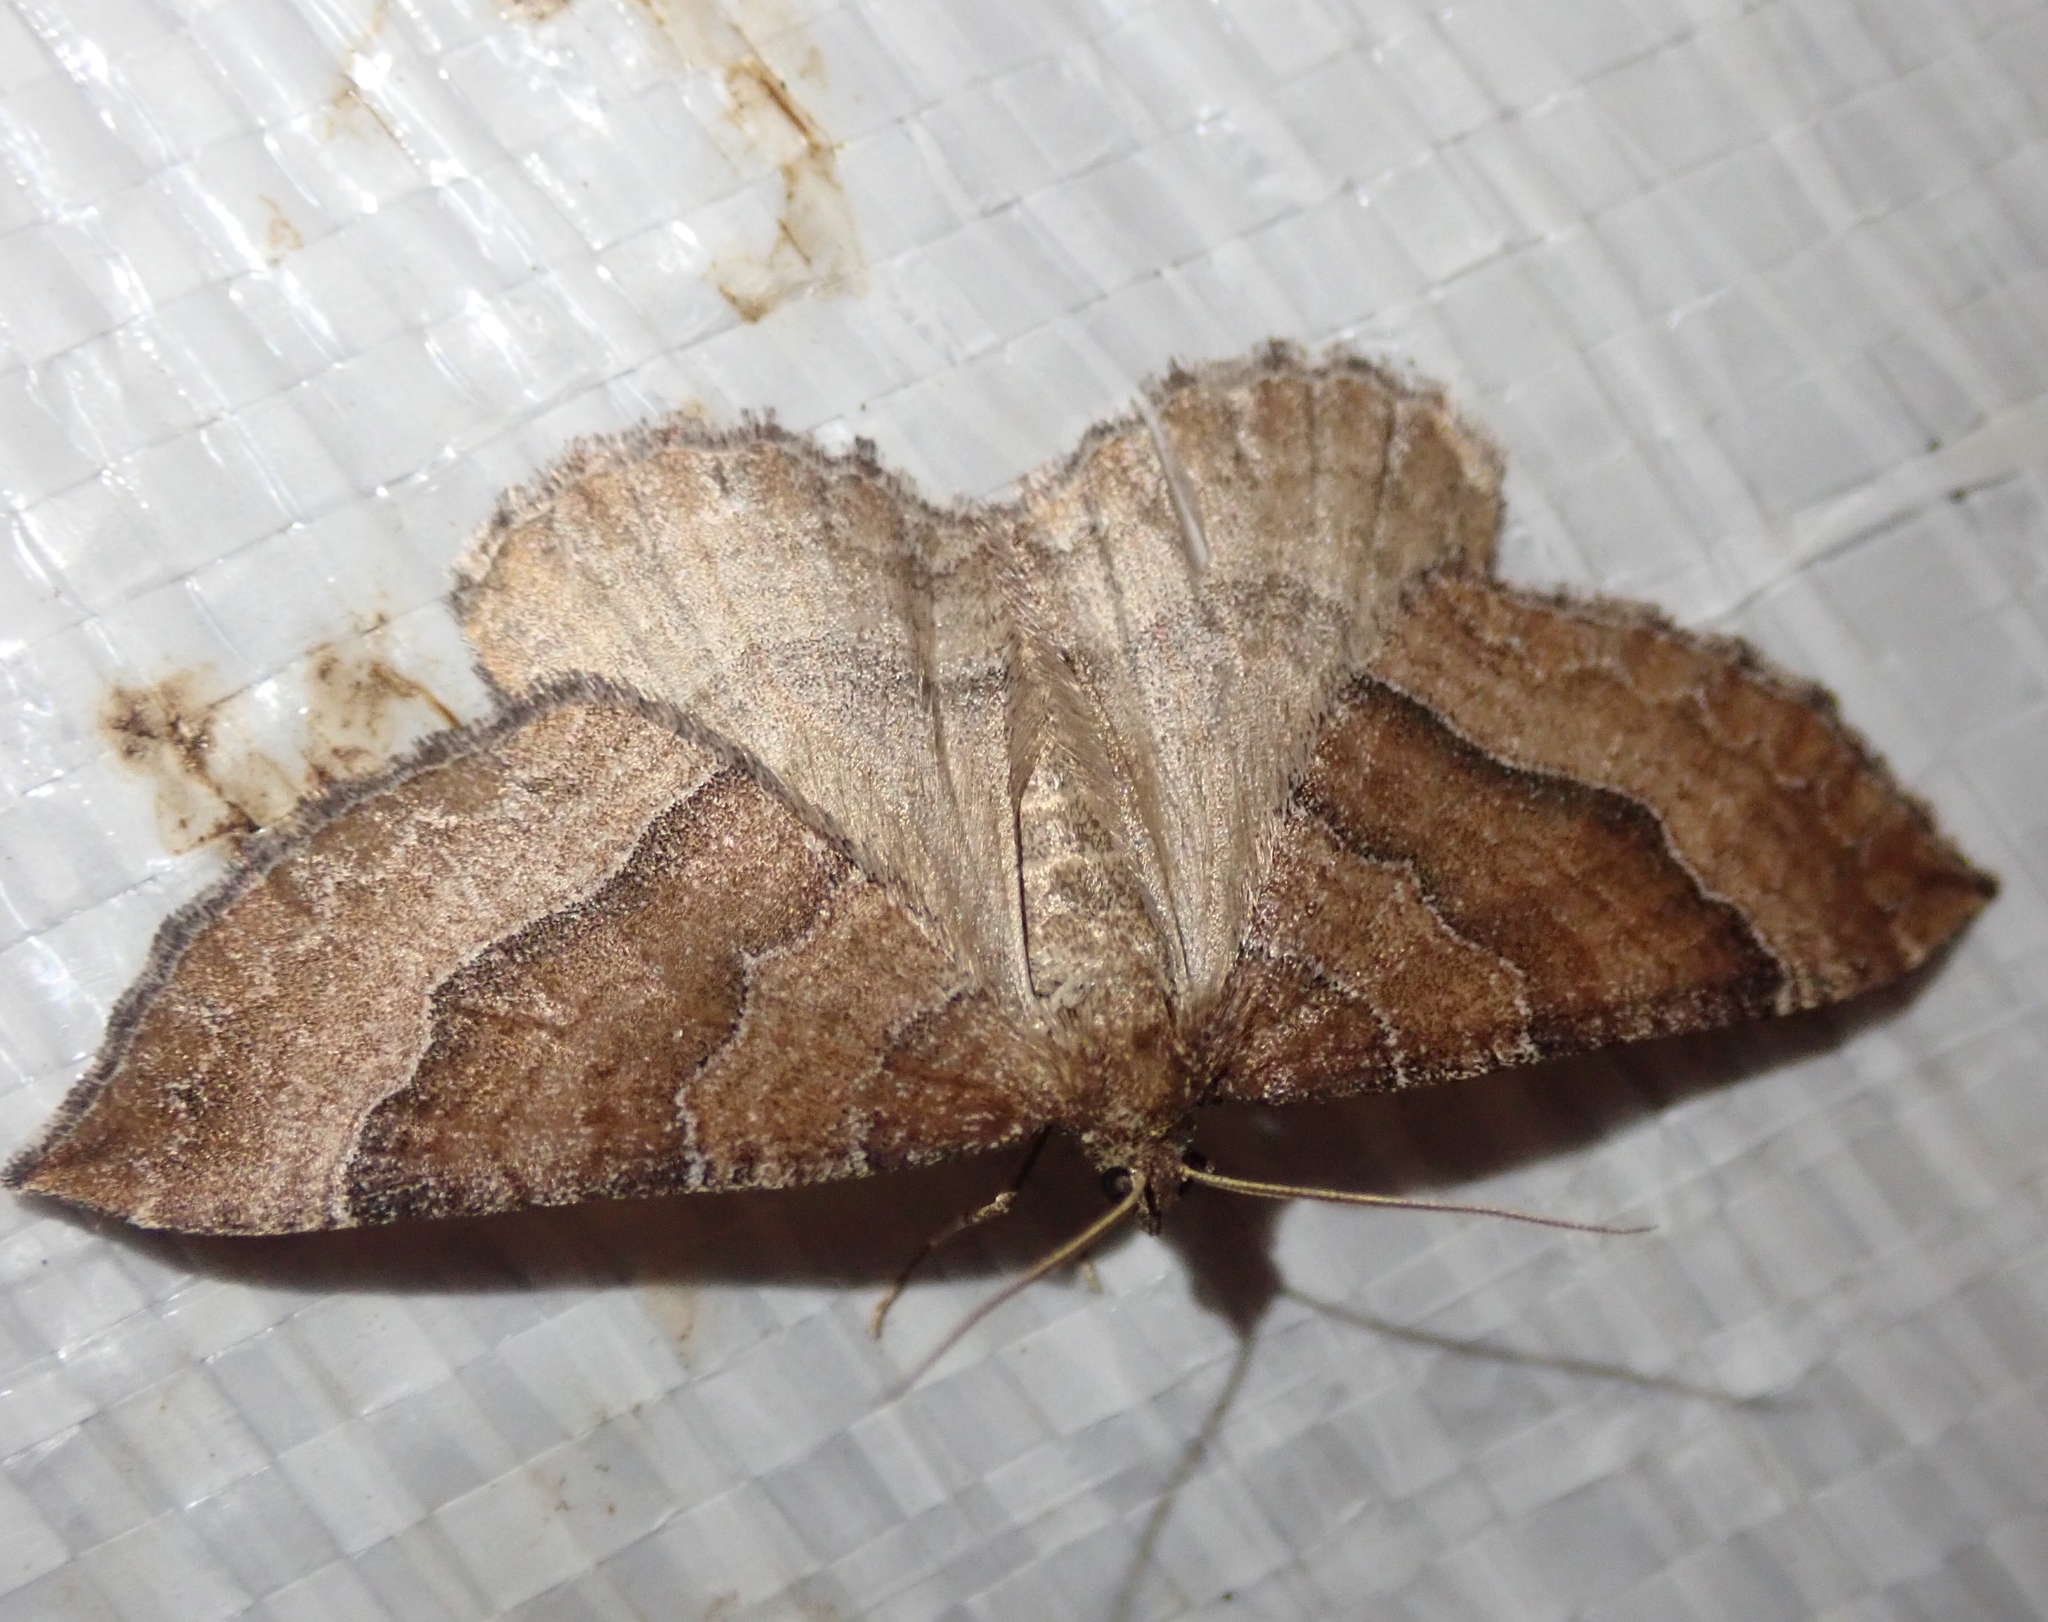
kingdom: Animalia
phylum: Arthropoda
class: Insecta
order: Lepidoptera
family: Geometridae
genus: Larentia
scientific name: Larentia clavaria
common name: Mallow
